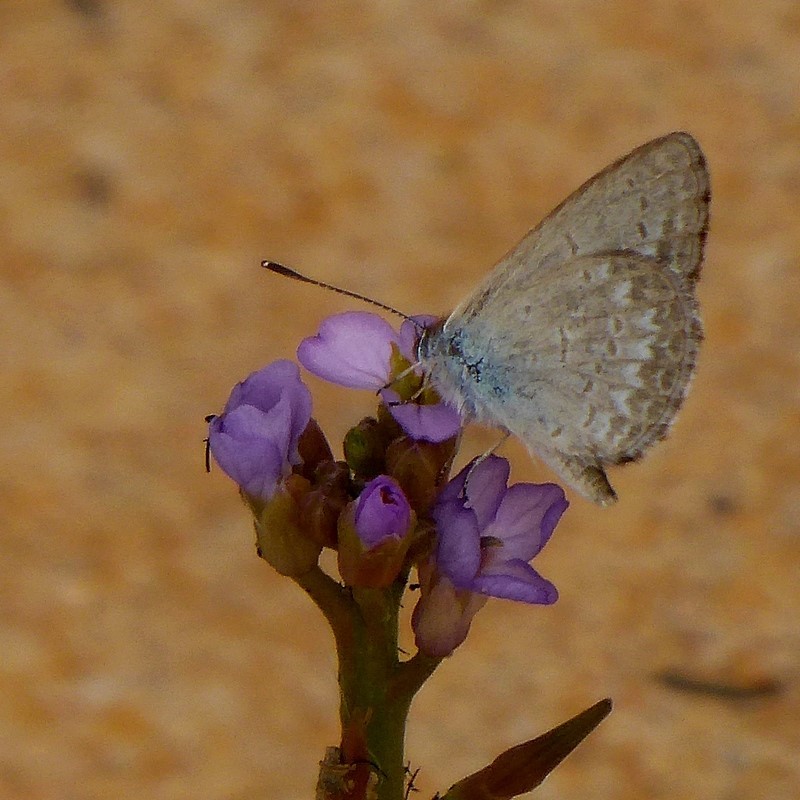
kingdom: Animalia
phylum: Arthropoda
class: Insecta
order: Lepidoptera
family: Lycaenidae
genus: Zizina
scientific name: Zizina labradus
